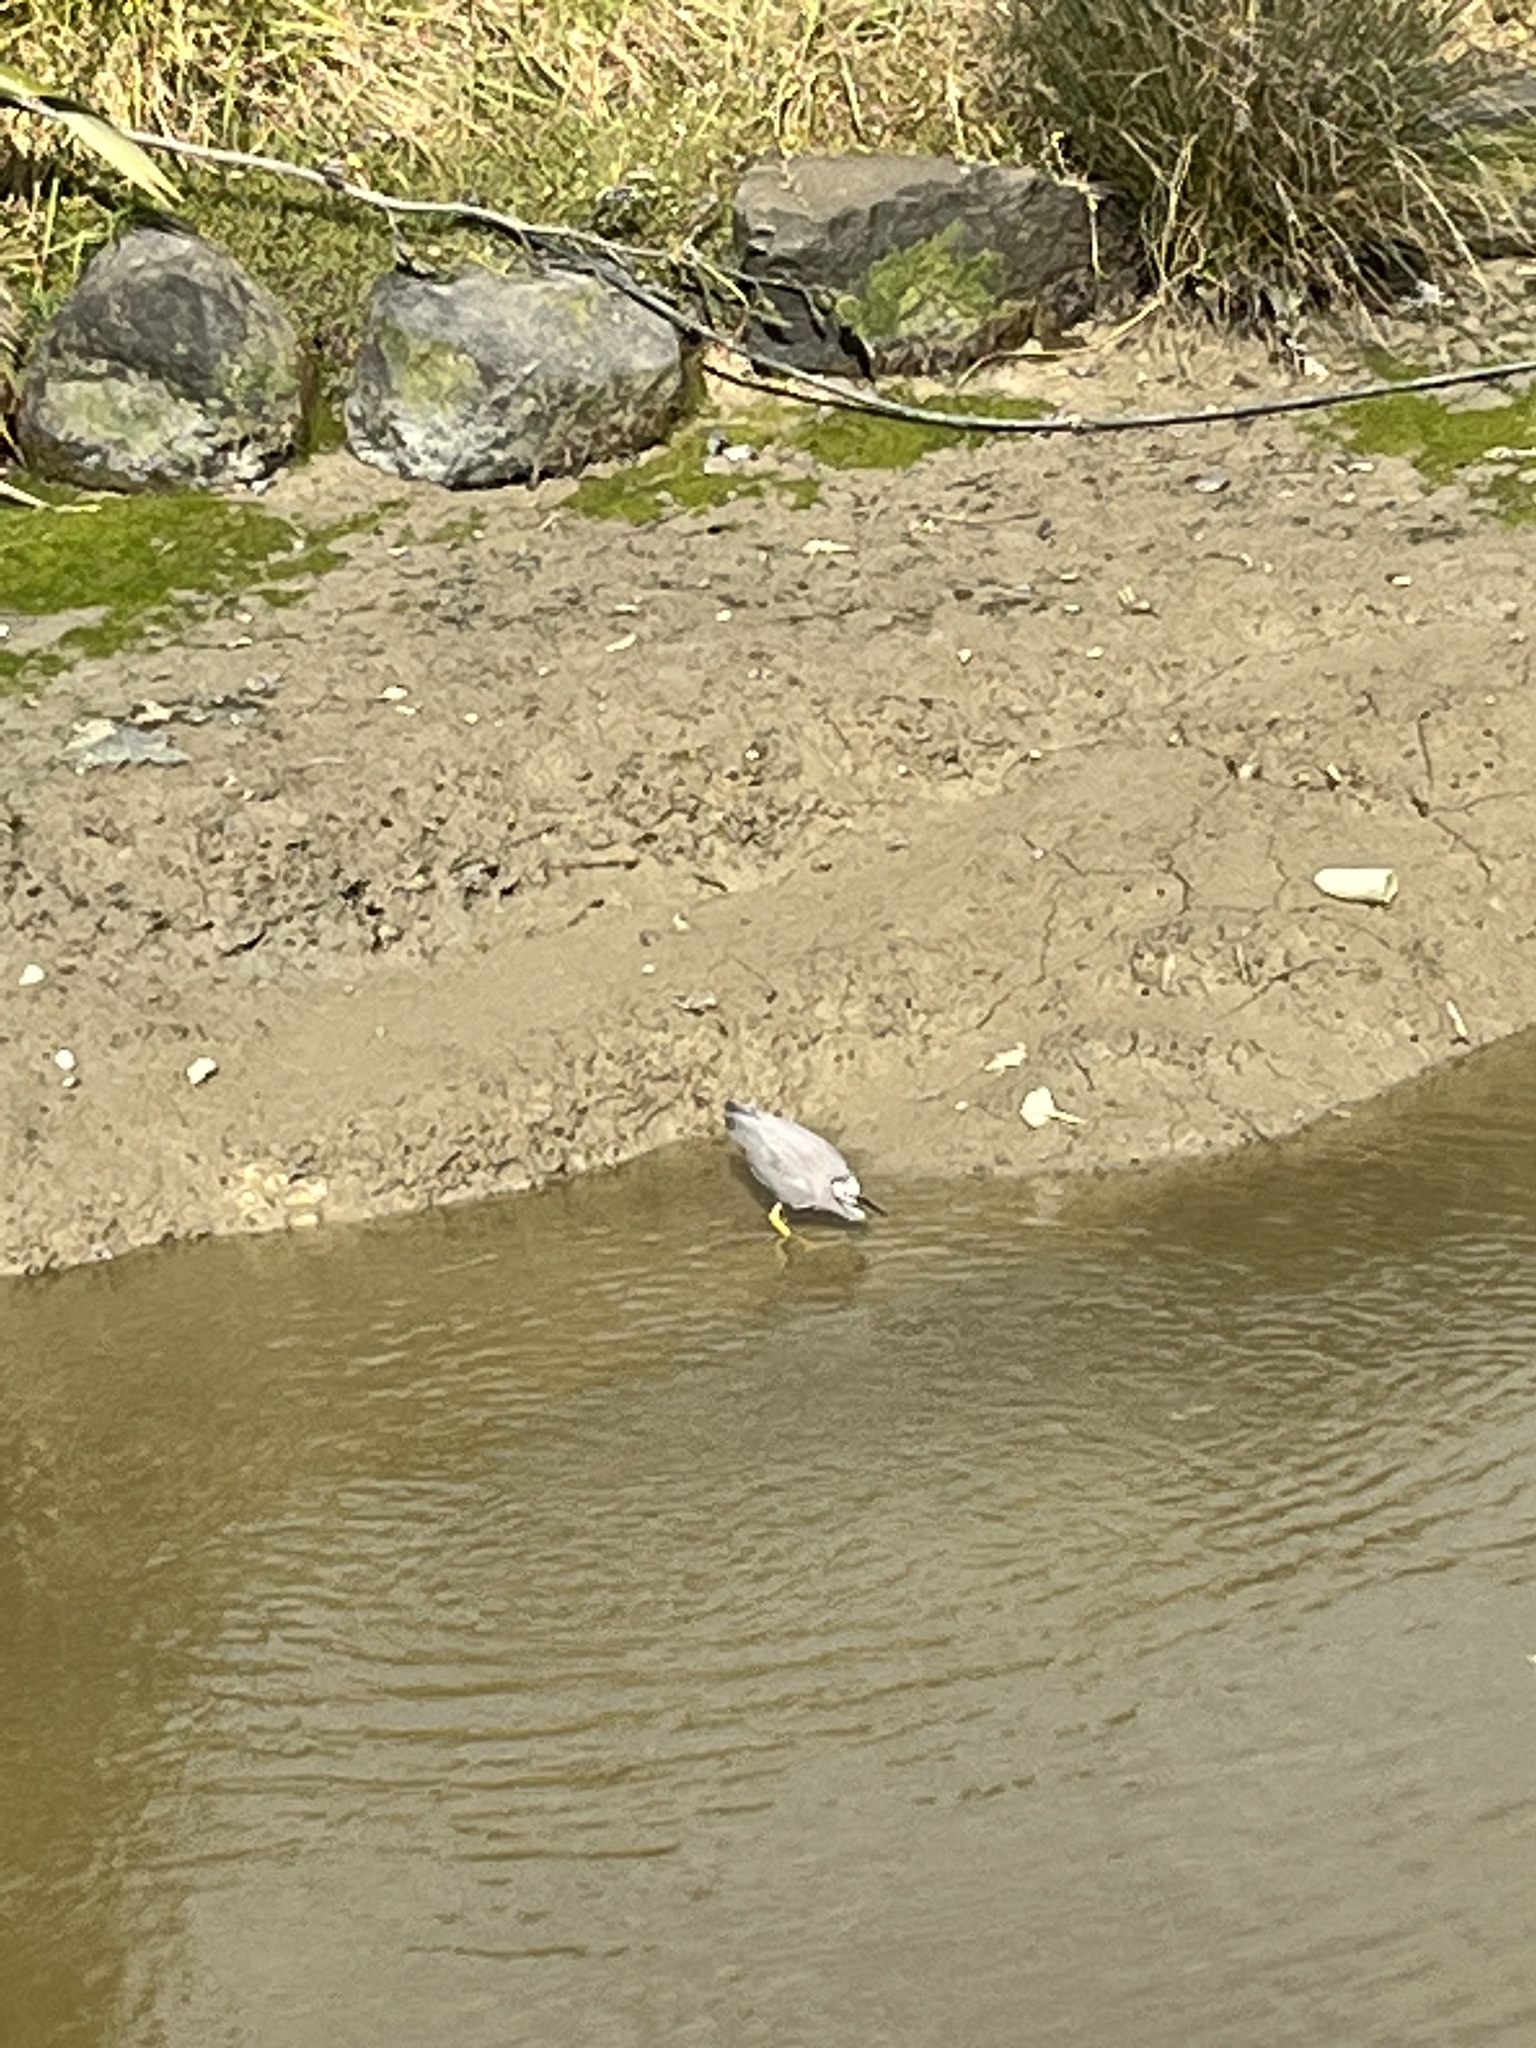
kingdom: Animalia
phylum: Chordata
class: Aves
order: Pelecaniformes
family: Ardeidae
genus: Egretta
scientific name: Egretta novaehollandiae
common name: White-faced heron
